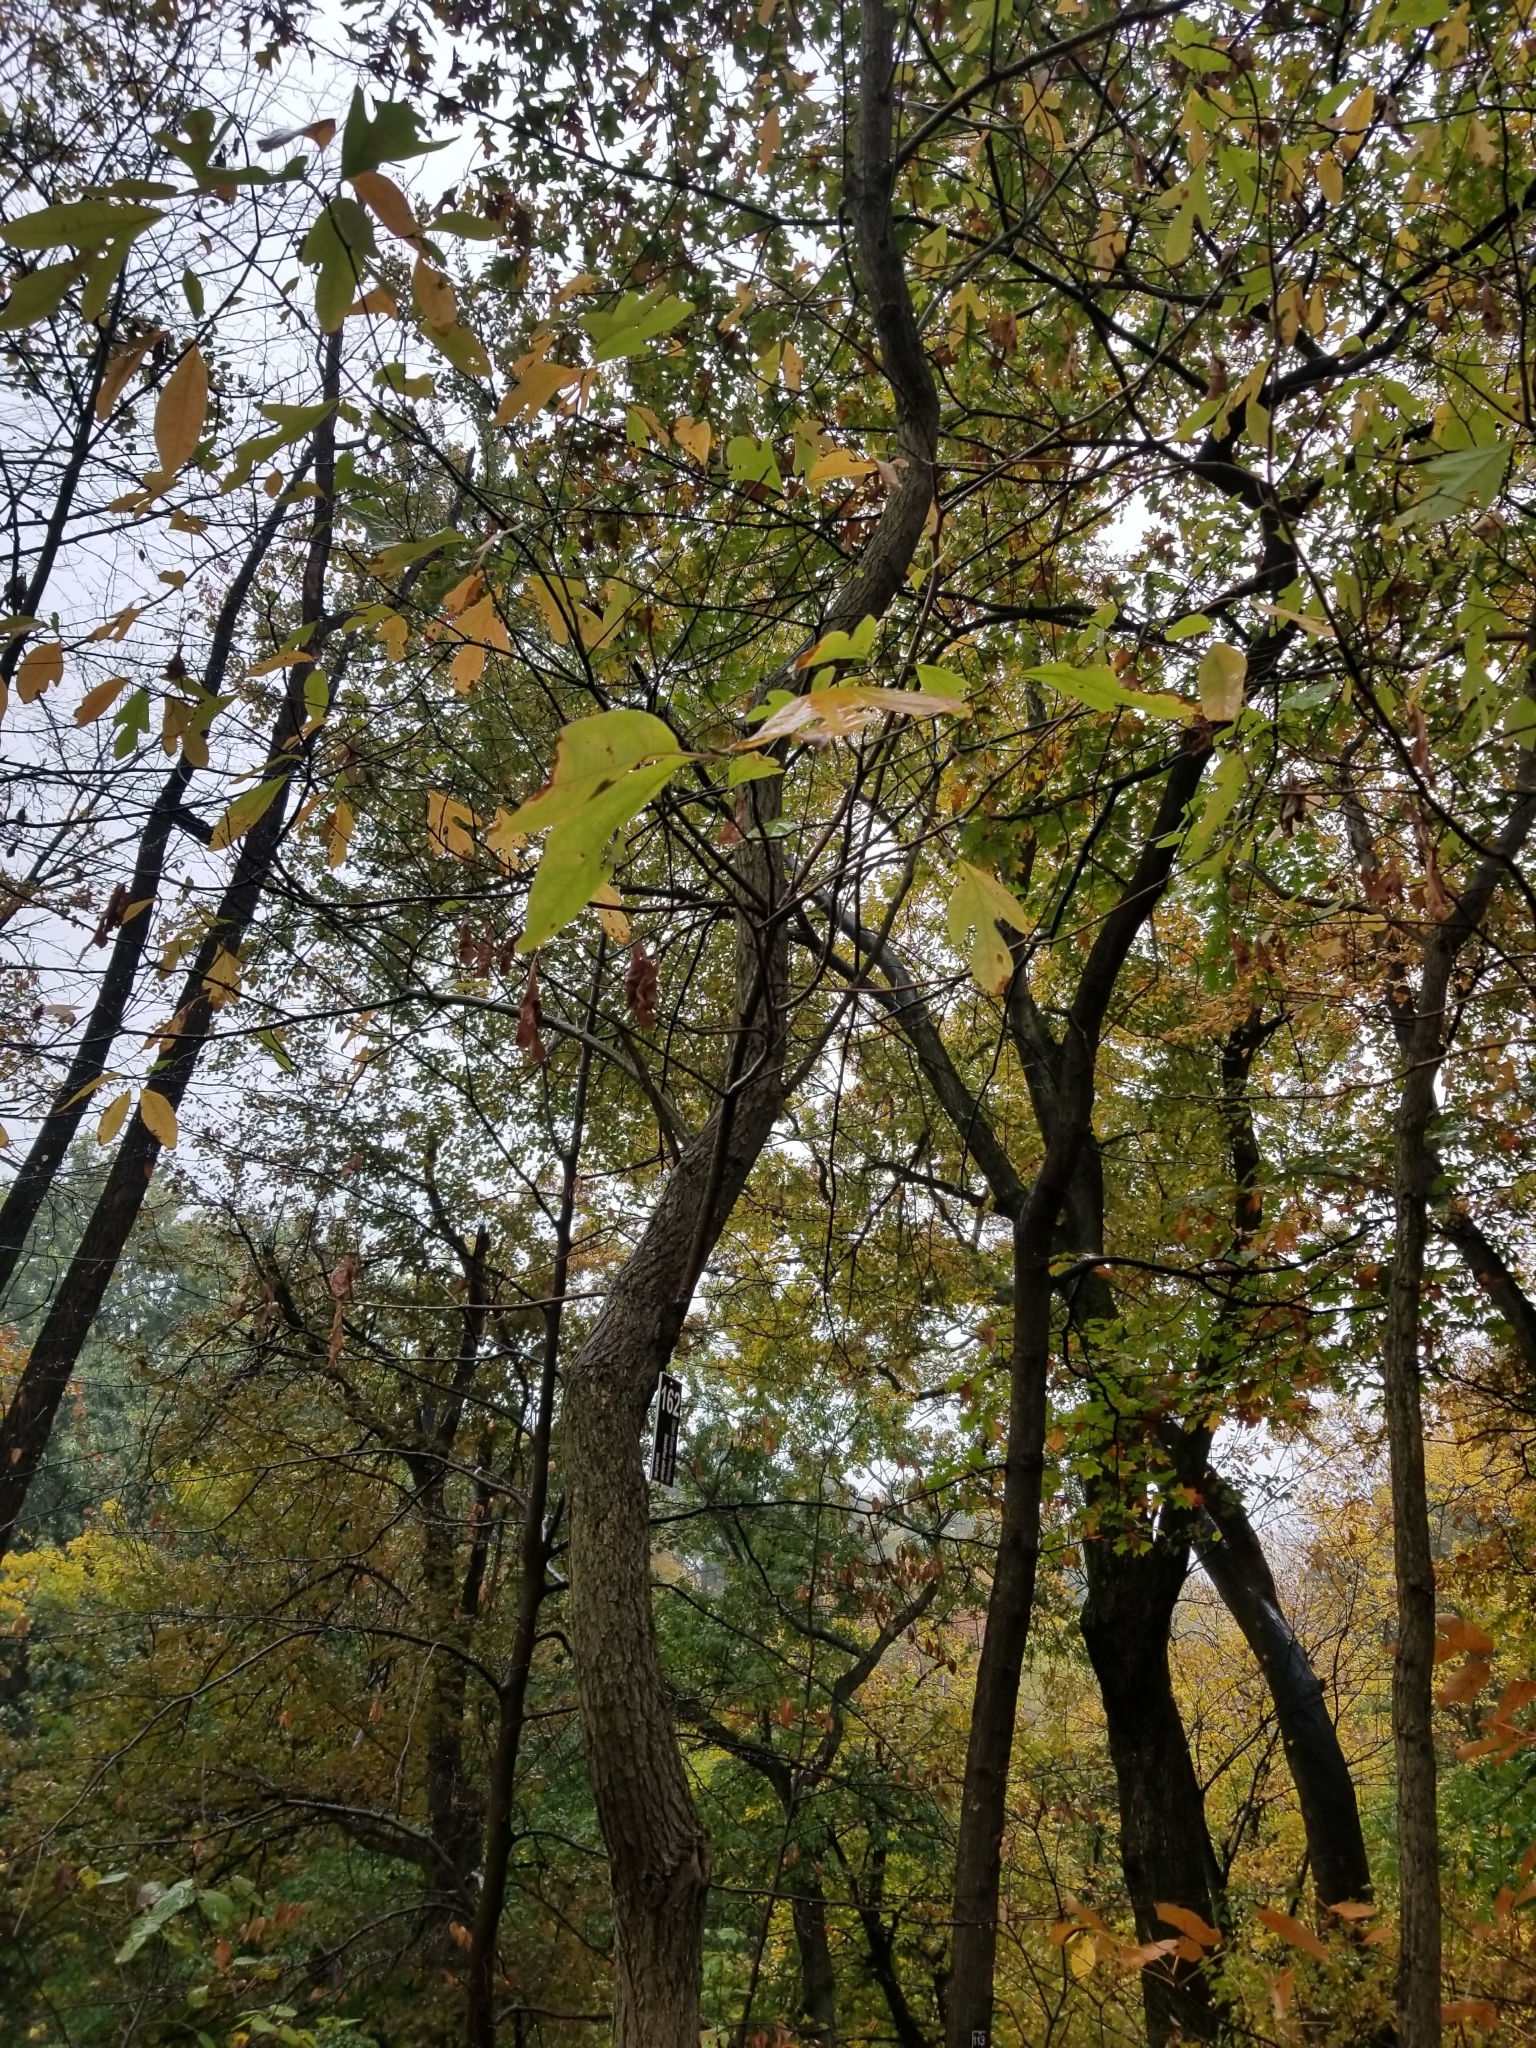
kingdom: Plantae
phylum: Tracheophyta
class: Magnoliopsida
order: Laurales
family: Lauraceae
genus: Sassafras
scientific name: Sassafras albidum
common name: Sassafras
